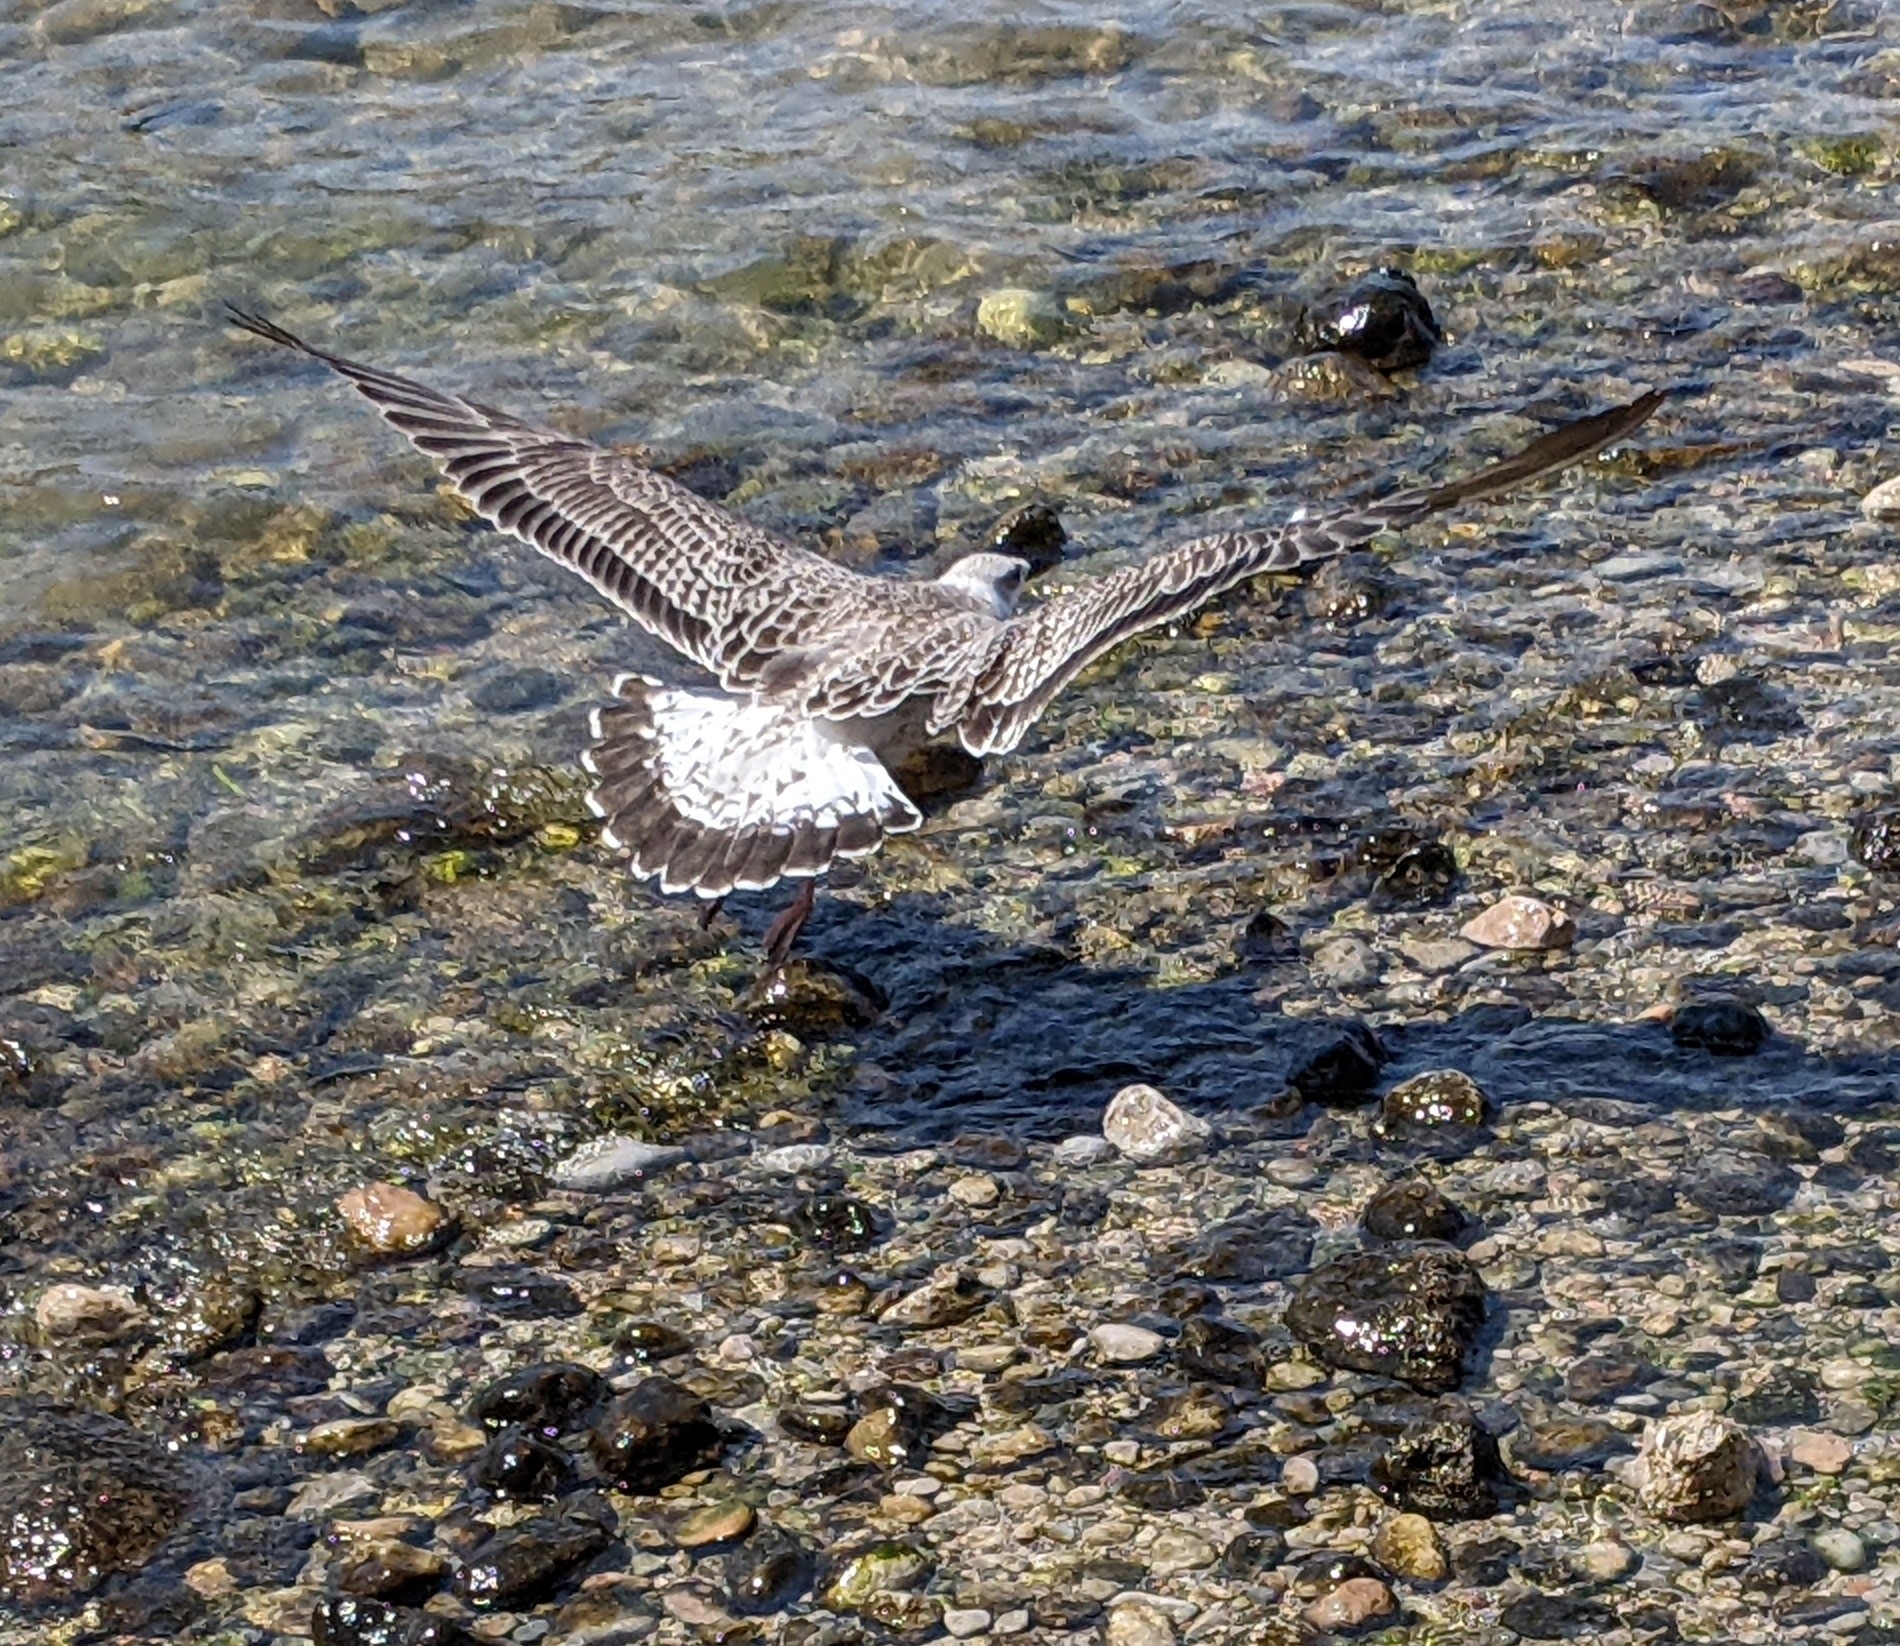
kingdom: Animalia
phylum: Chordata
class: Aves
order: Charadriiformes
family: Laridae
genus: Larus
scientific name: Larus michahellis
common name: Yellow-legged gull
